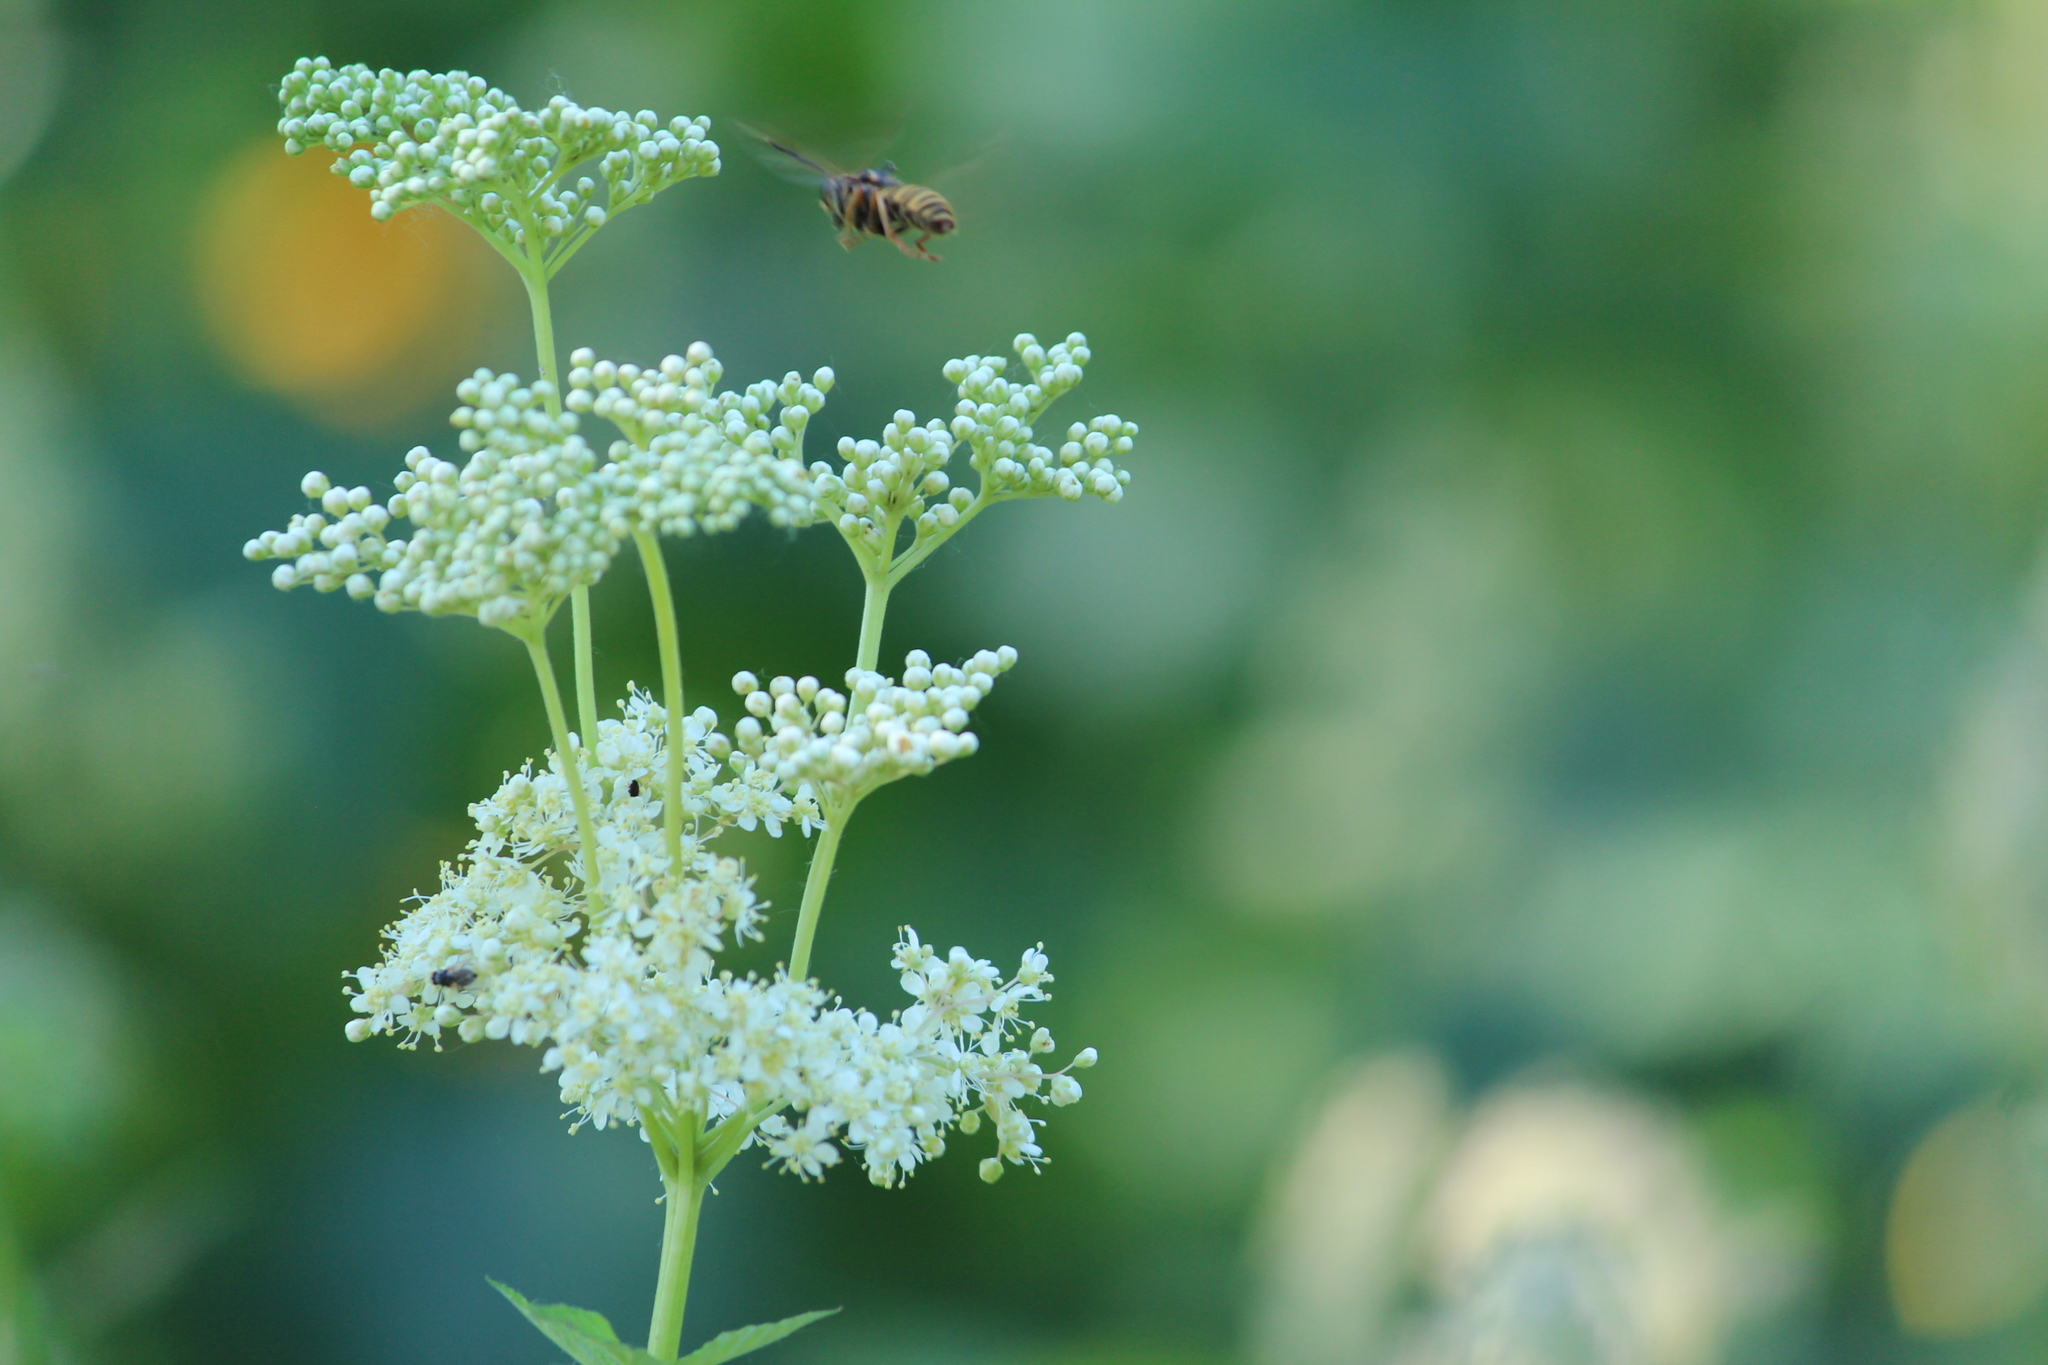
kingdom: Animalia
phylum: Arthropoda
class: Insecta
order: Diptera
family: Syrphidae
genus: Temnostoma
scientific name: Temnostoma vespiforme
